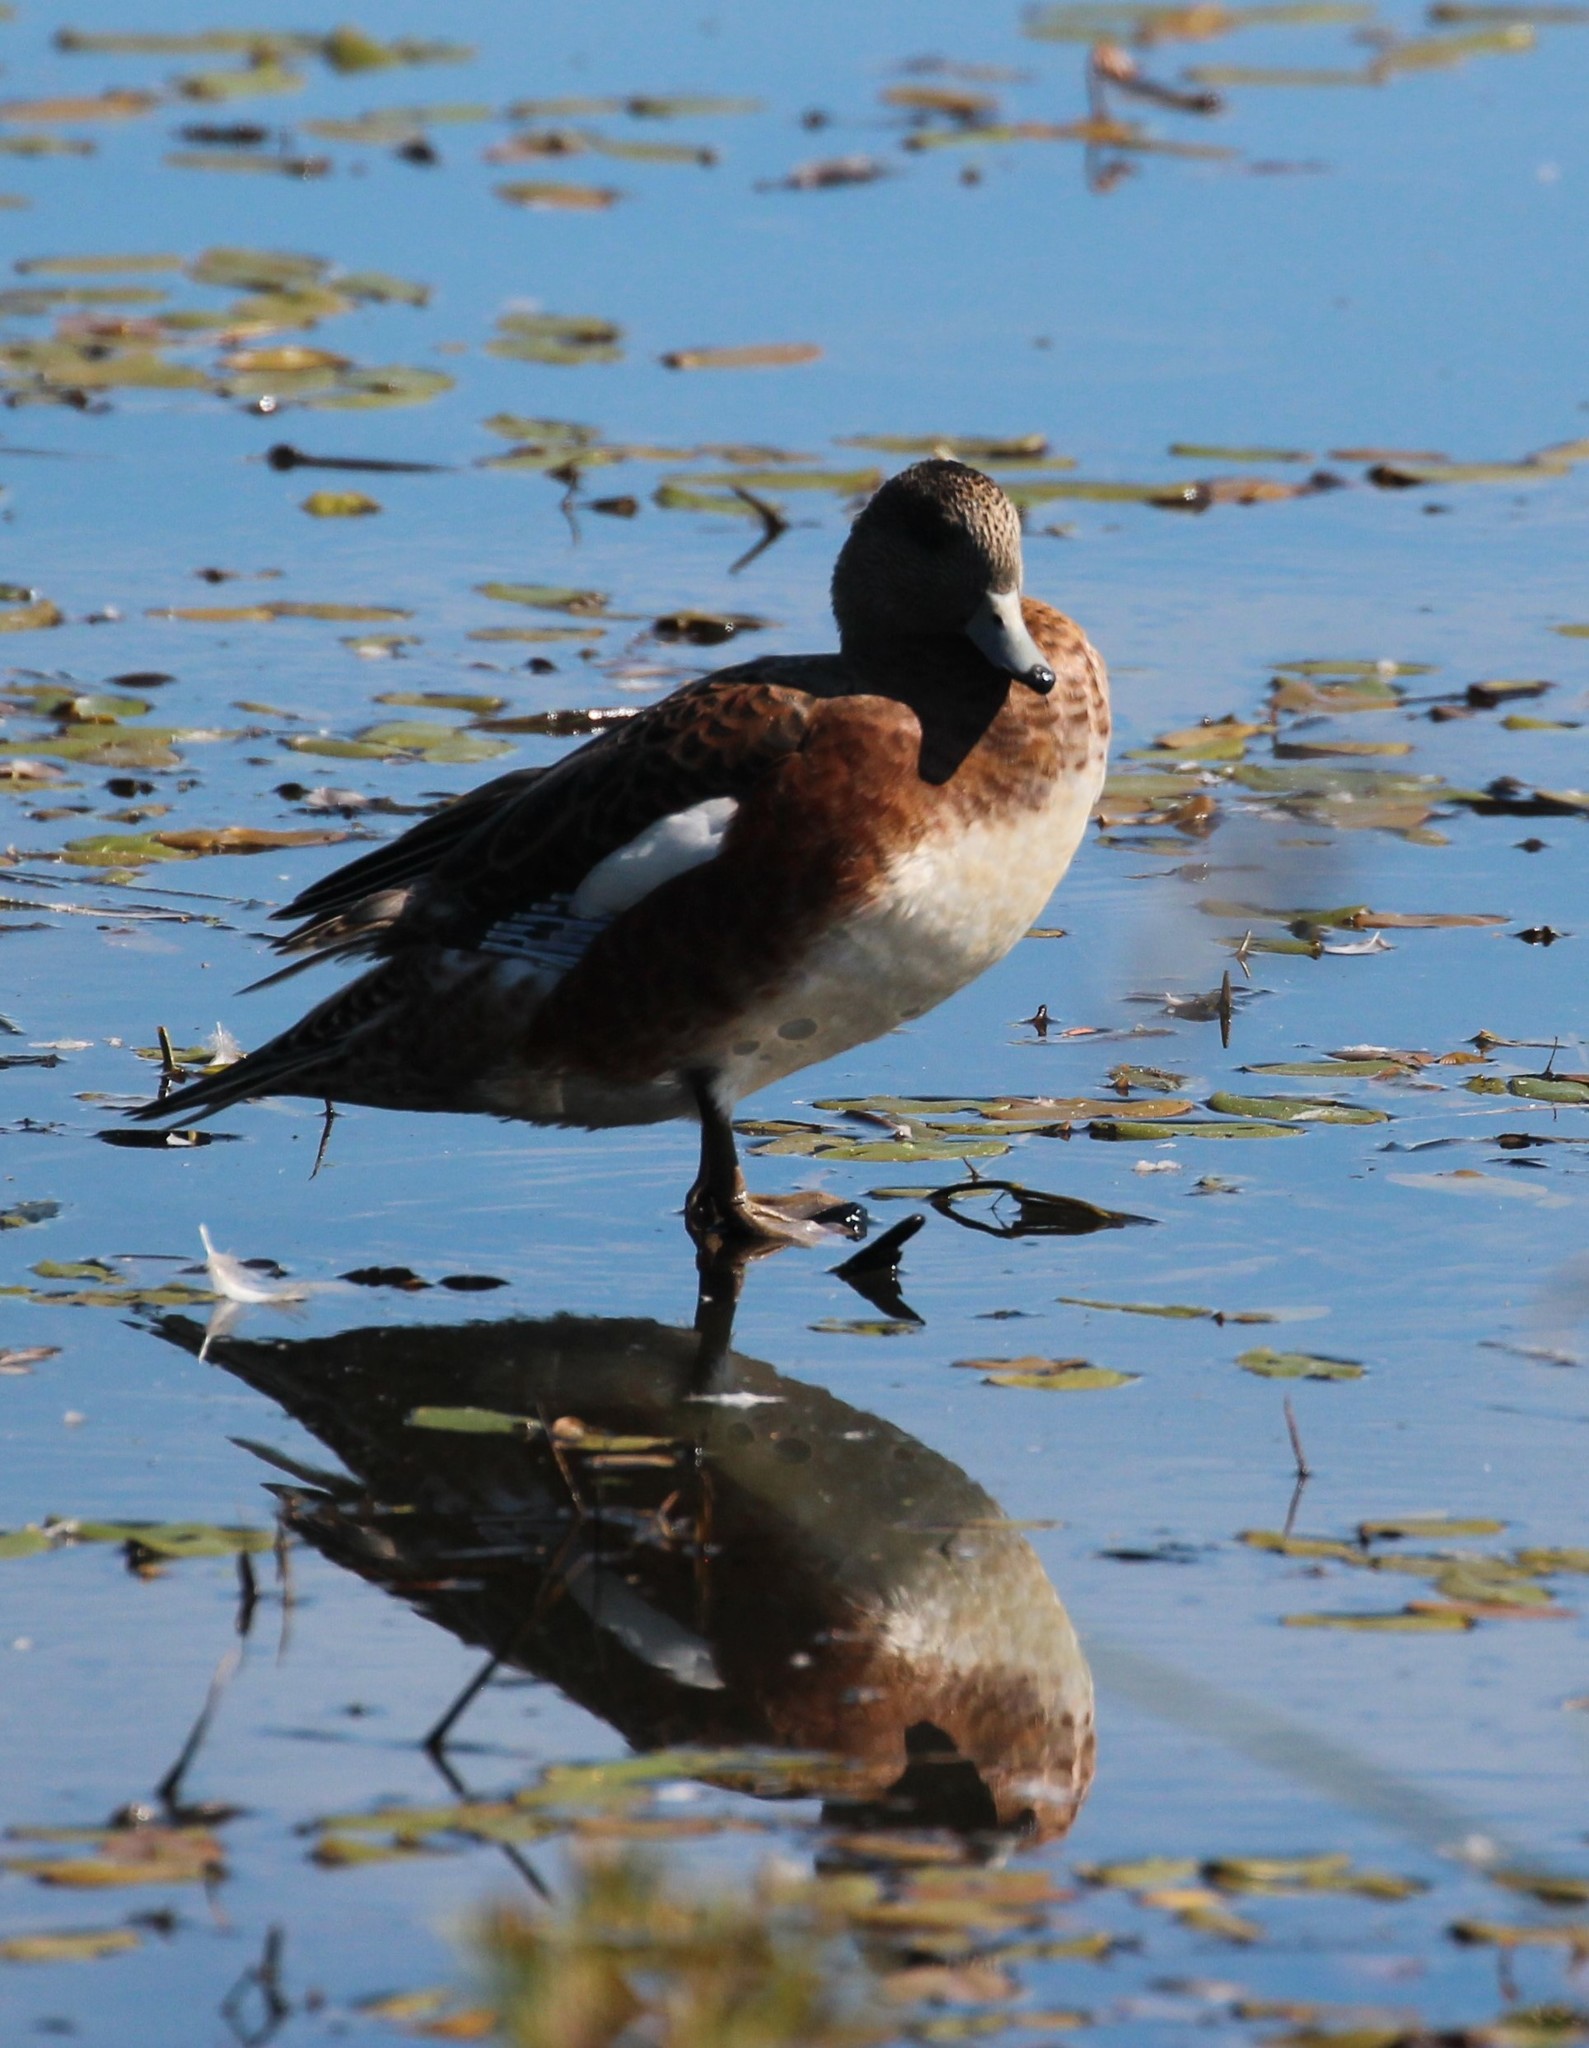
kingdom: Animalia
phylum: Chordata
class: Aves
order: Anseriformes
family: Anatidae
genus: Mareca
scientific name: Mareca americana
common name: American wigeon
